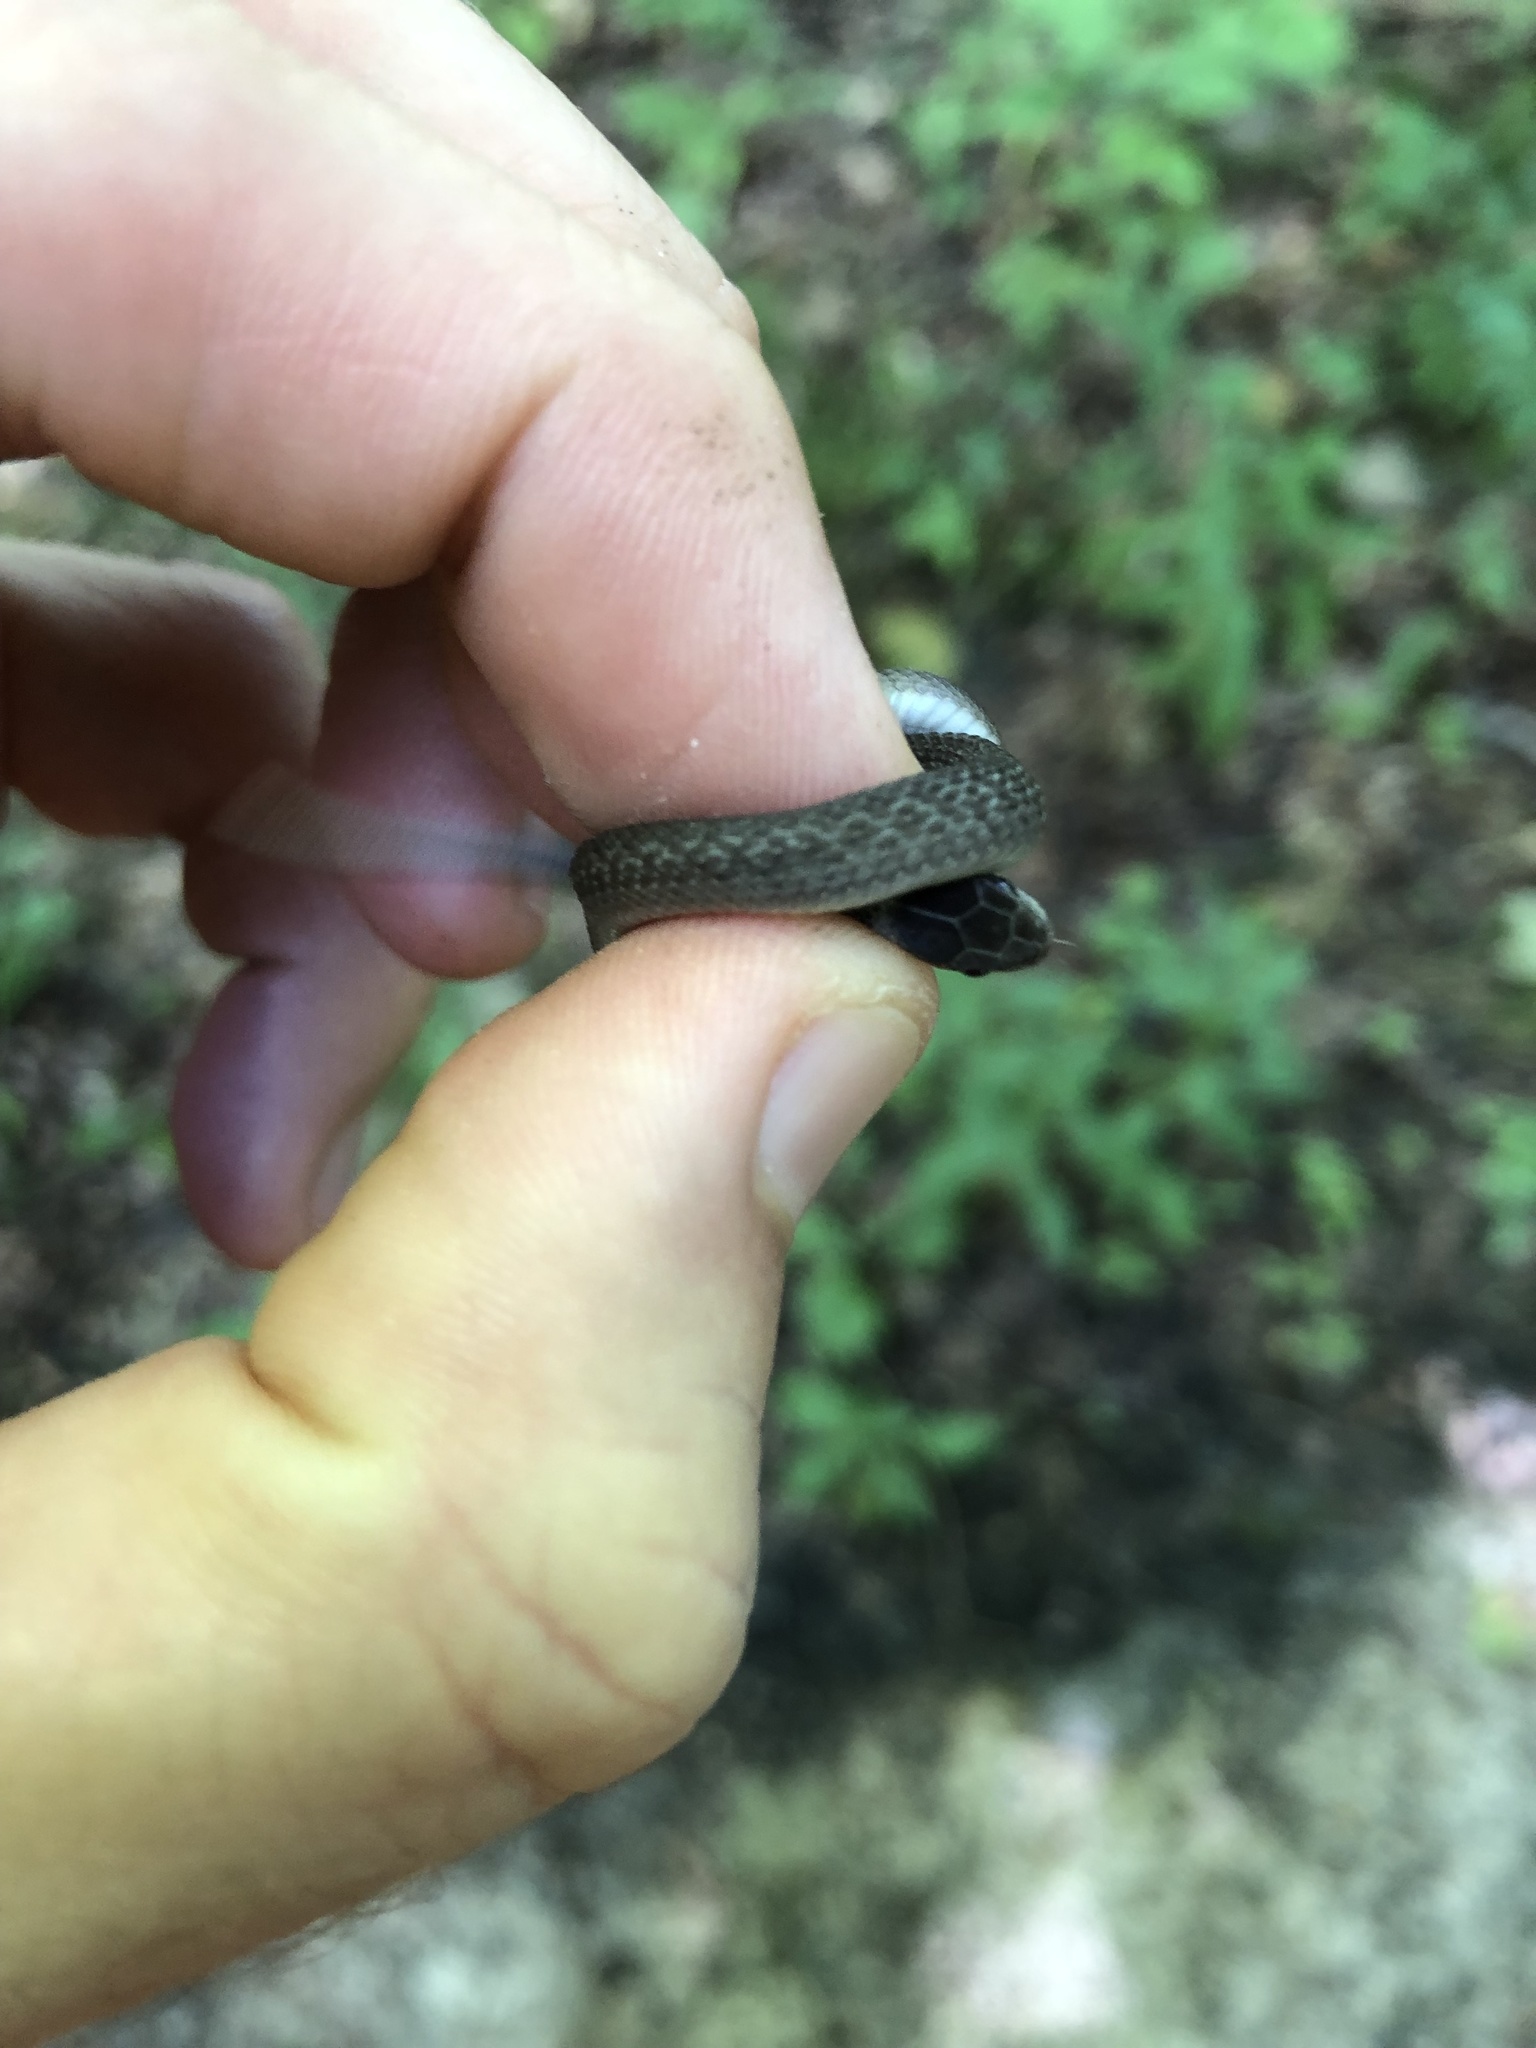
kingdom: Animalia
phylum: Chordata
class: Squamata
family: Colubridae
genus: Storeria
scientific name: Storeria dekayi
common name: (dekay’s) brown snake
